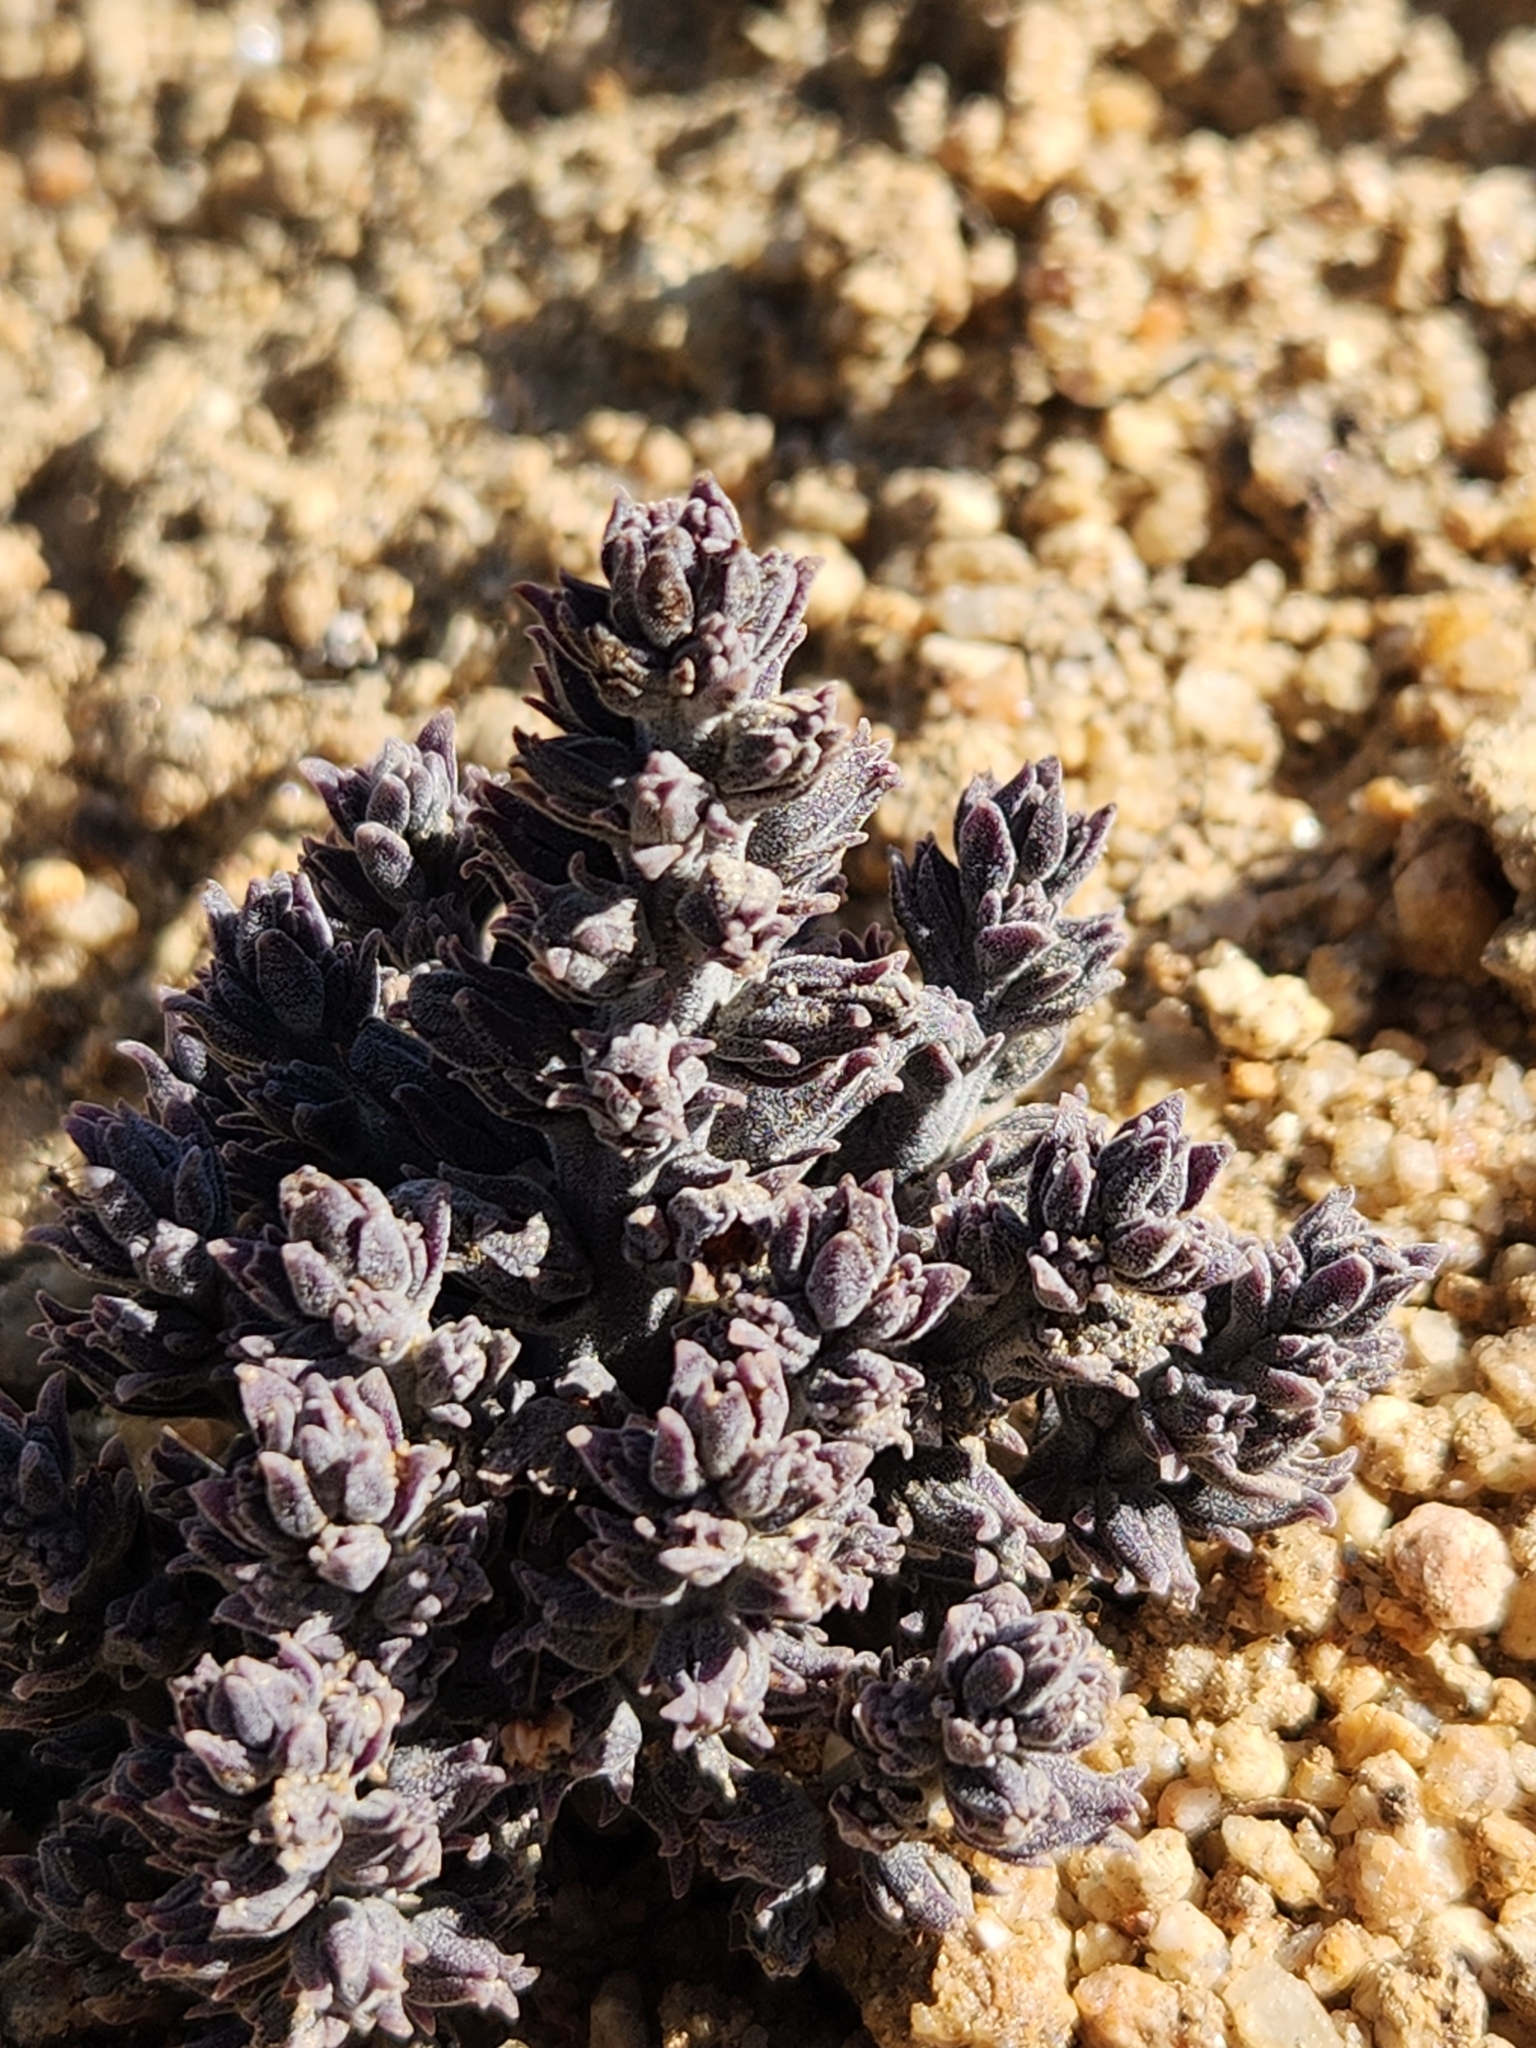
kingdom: Plantae
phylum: Tracheophyta
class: Magnoliopsida
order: Lamiales
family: Orobanchaceae
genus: Aphyllon
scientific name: Aphyllon tuberosum
